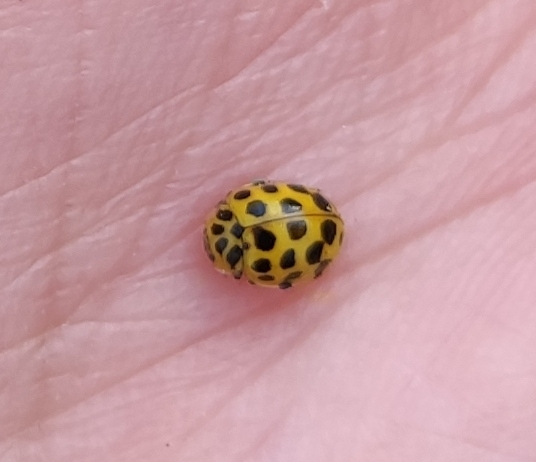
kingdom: Animalia
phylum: Arthropoda
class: Insecta
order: Coleoptera
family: Coccinellidae
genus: Psyllobora
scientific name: Psyllobora vigintiduopunctata
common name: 22-spot ladybird
